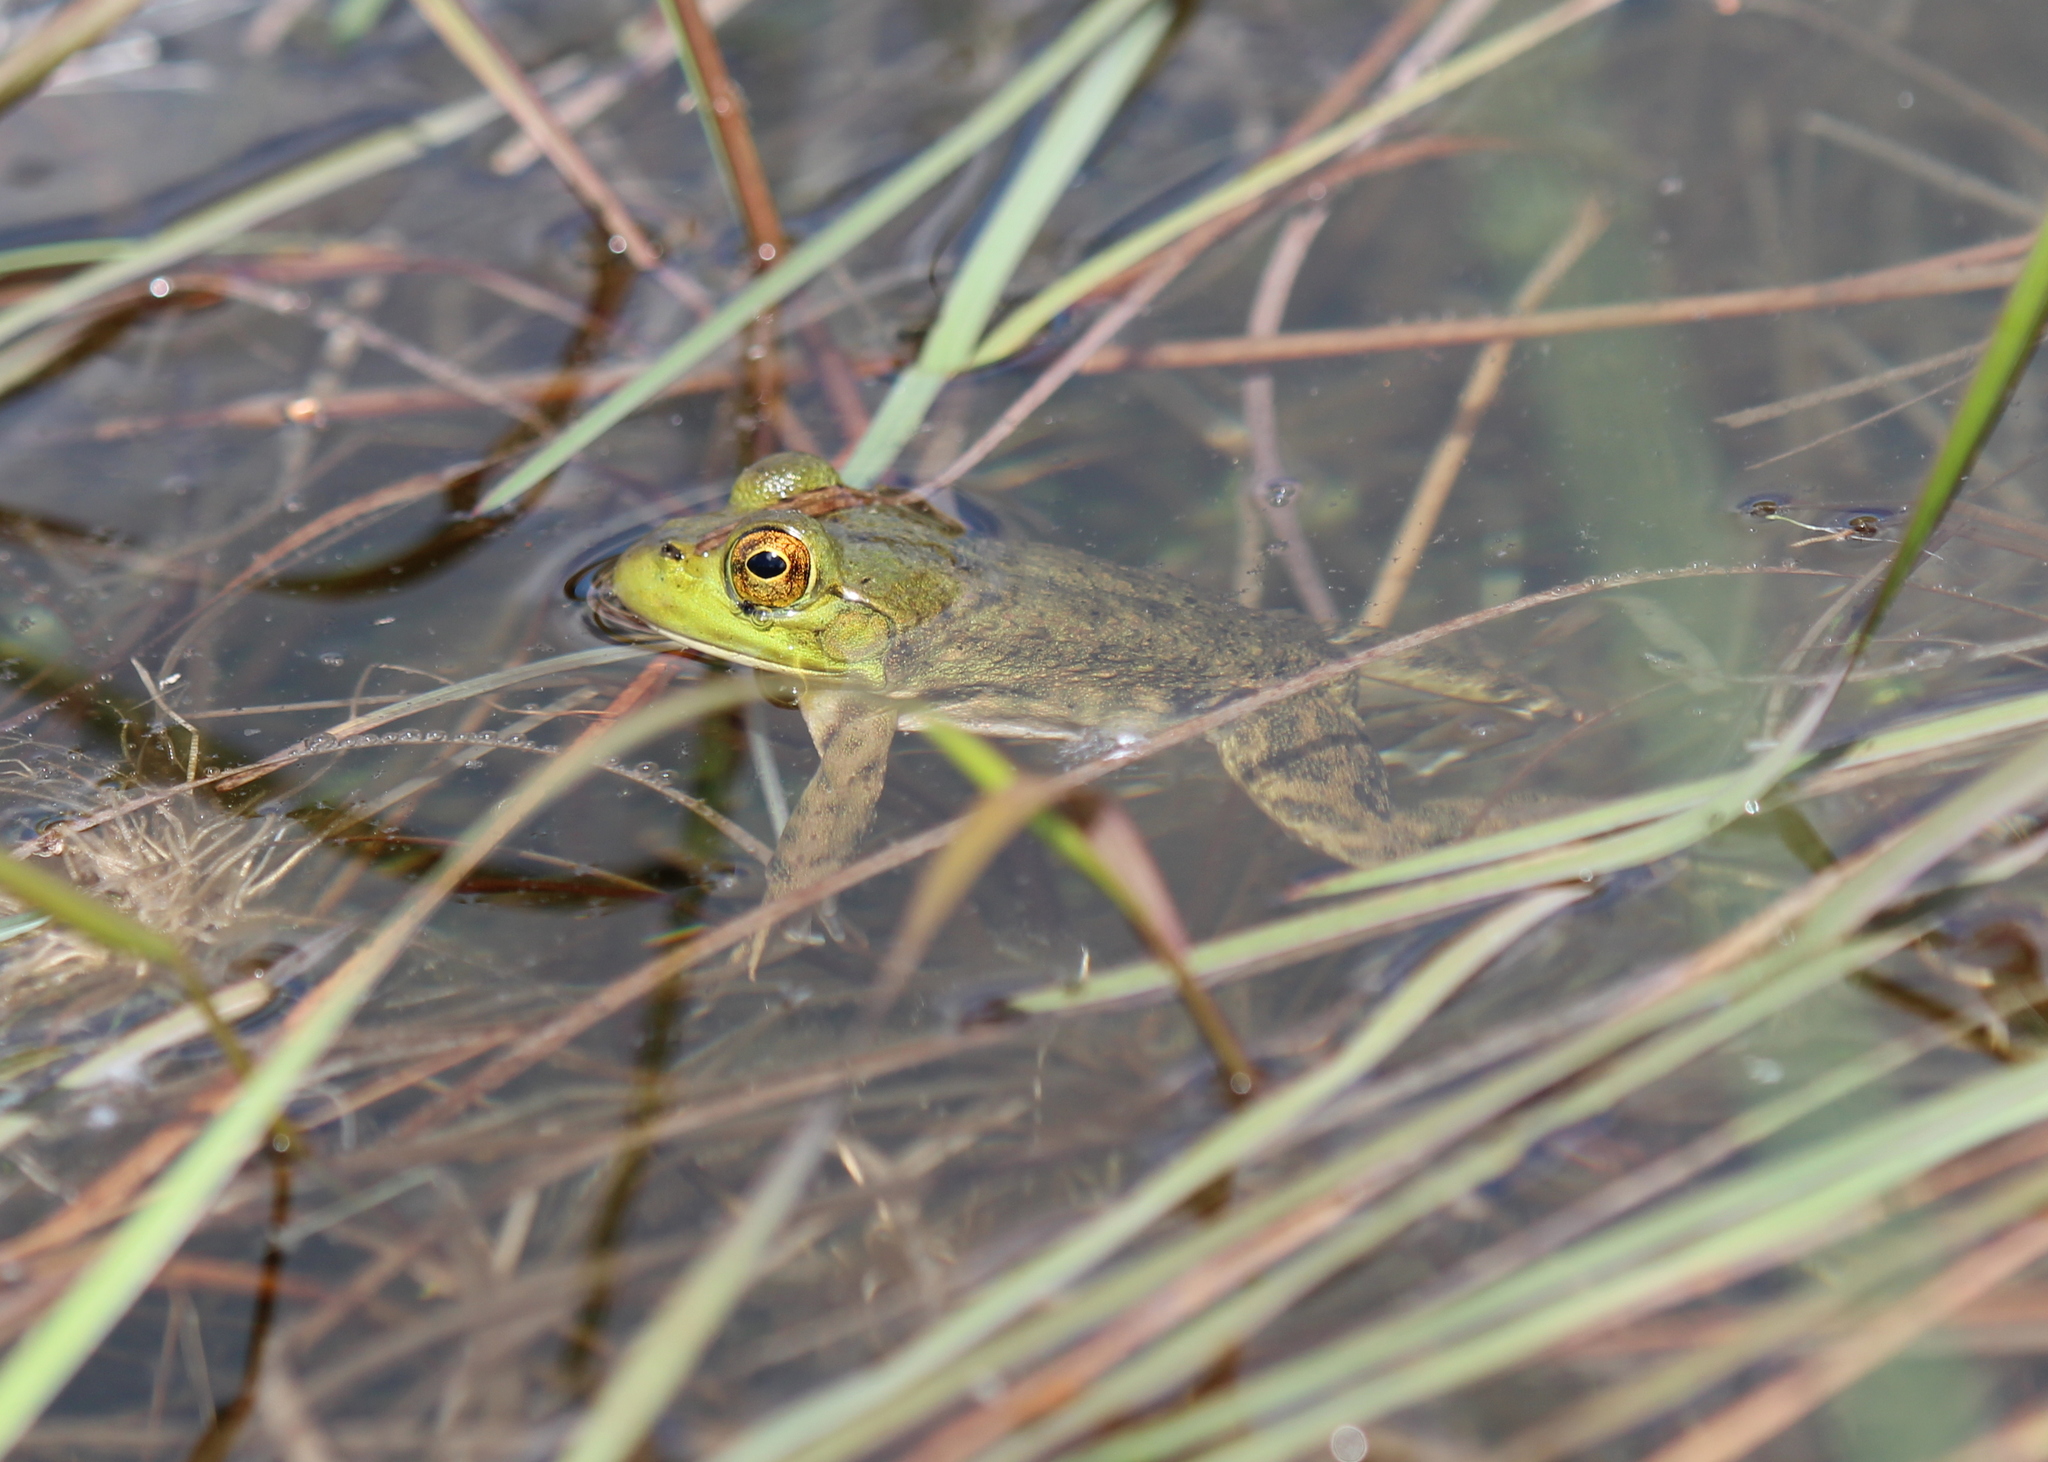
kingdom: Animalia
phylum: Chordata
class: Amphibia
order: Anura
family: Ranidae
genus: Lithobates
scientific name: Lithobates catesbeianus
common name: American bullfrog
